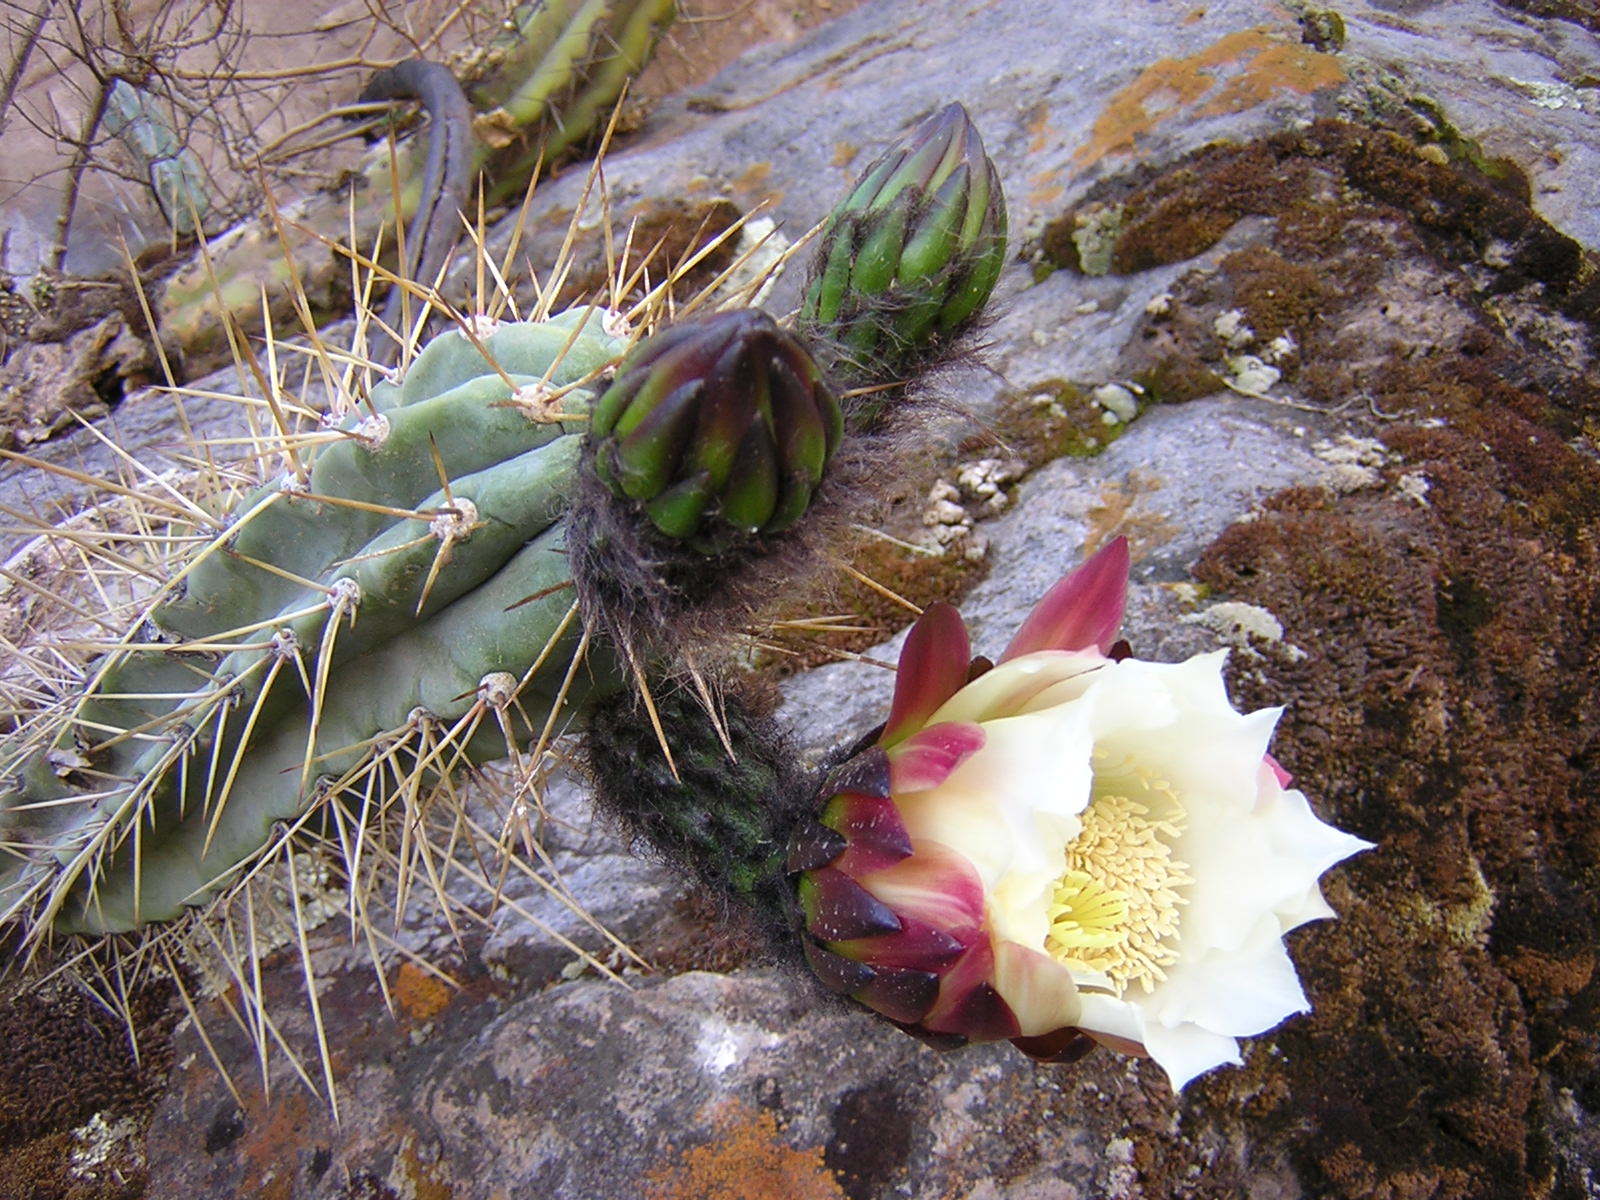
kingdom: Plantae
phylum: Tracheophyta
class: Magnoliopsida
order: Caryophyllales
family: Cactaceae
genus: Trichocereus
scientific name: Trichocereus cuzcoensis
